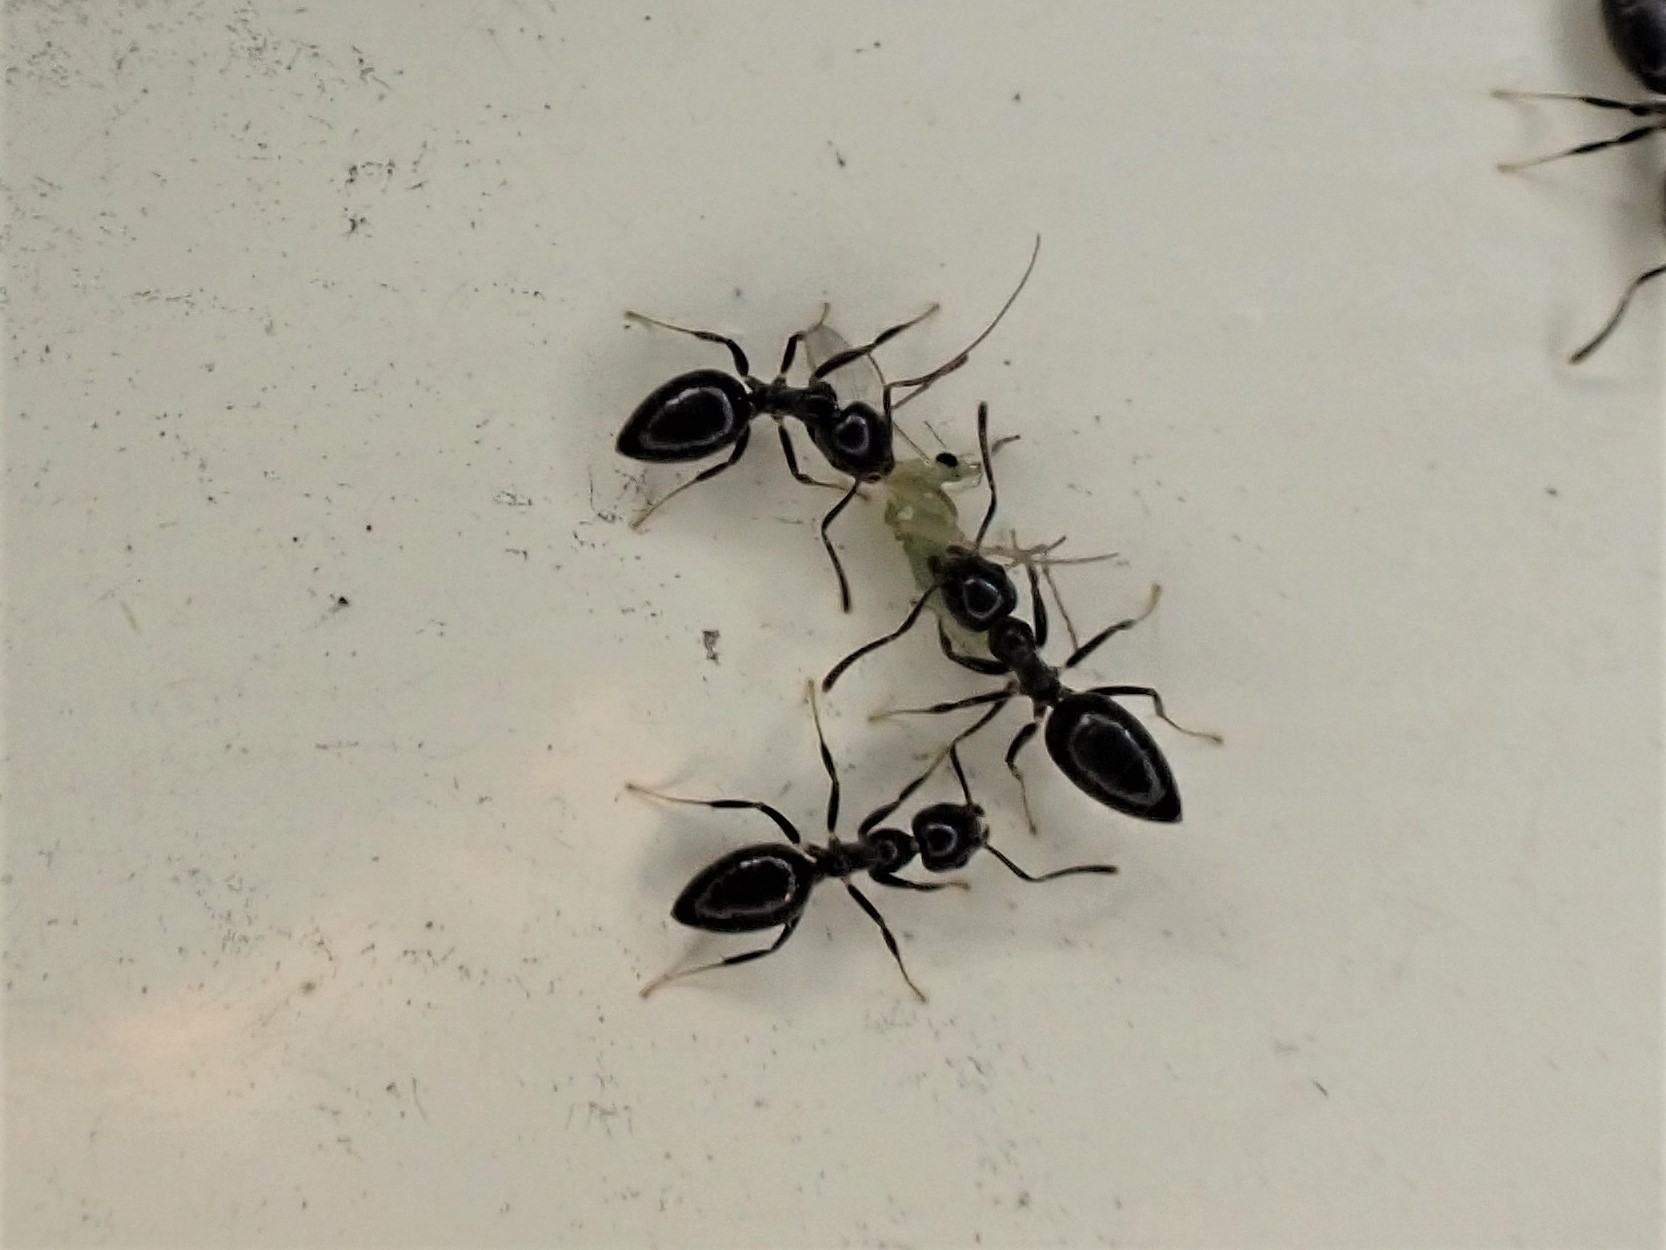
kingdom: Animalia
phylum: Arthropoda
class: Insecta
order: Hymenoptera
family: Formicidae
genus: Technomyrmex
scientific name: Technomyrmex jocosus
